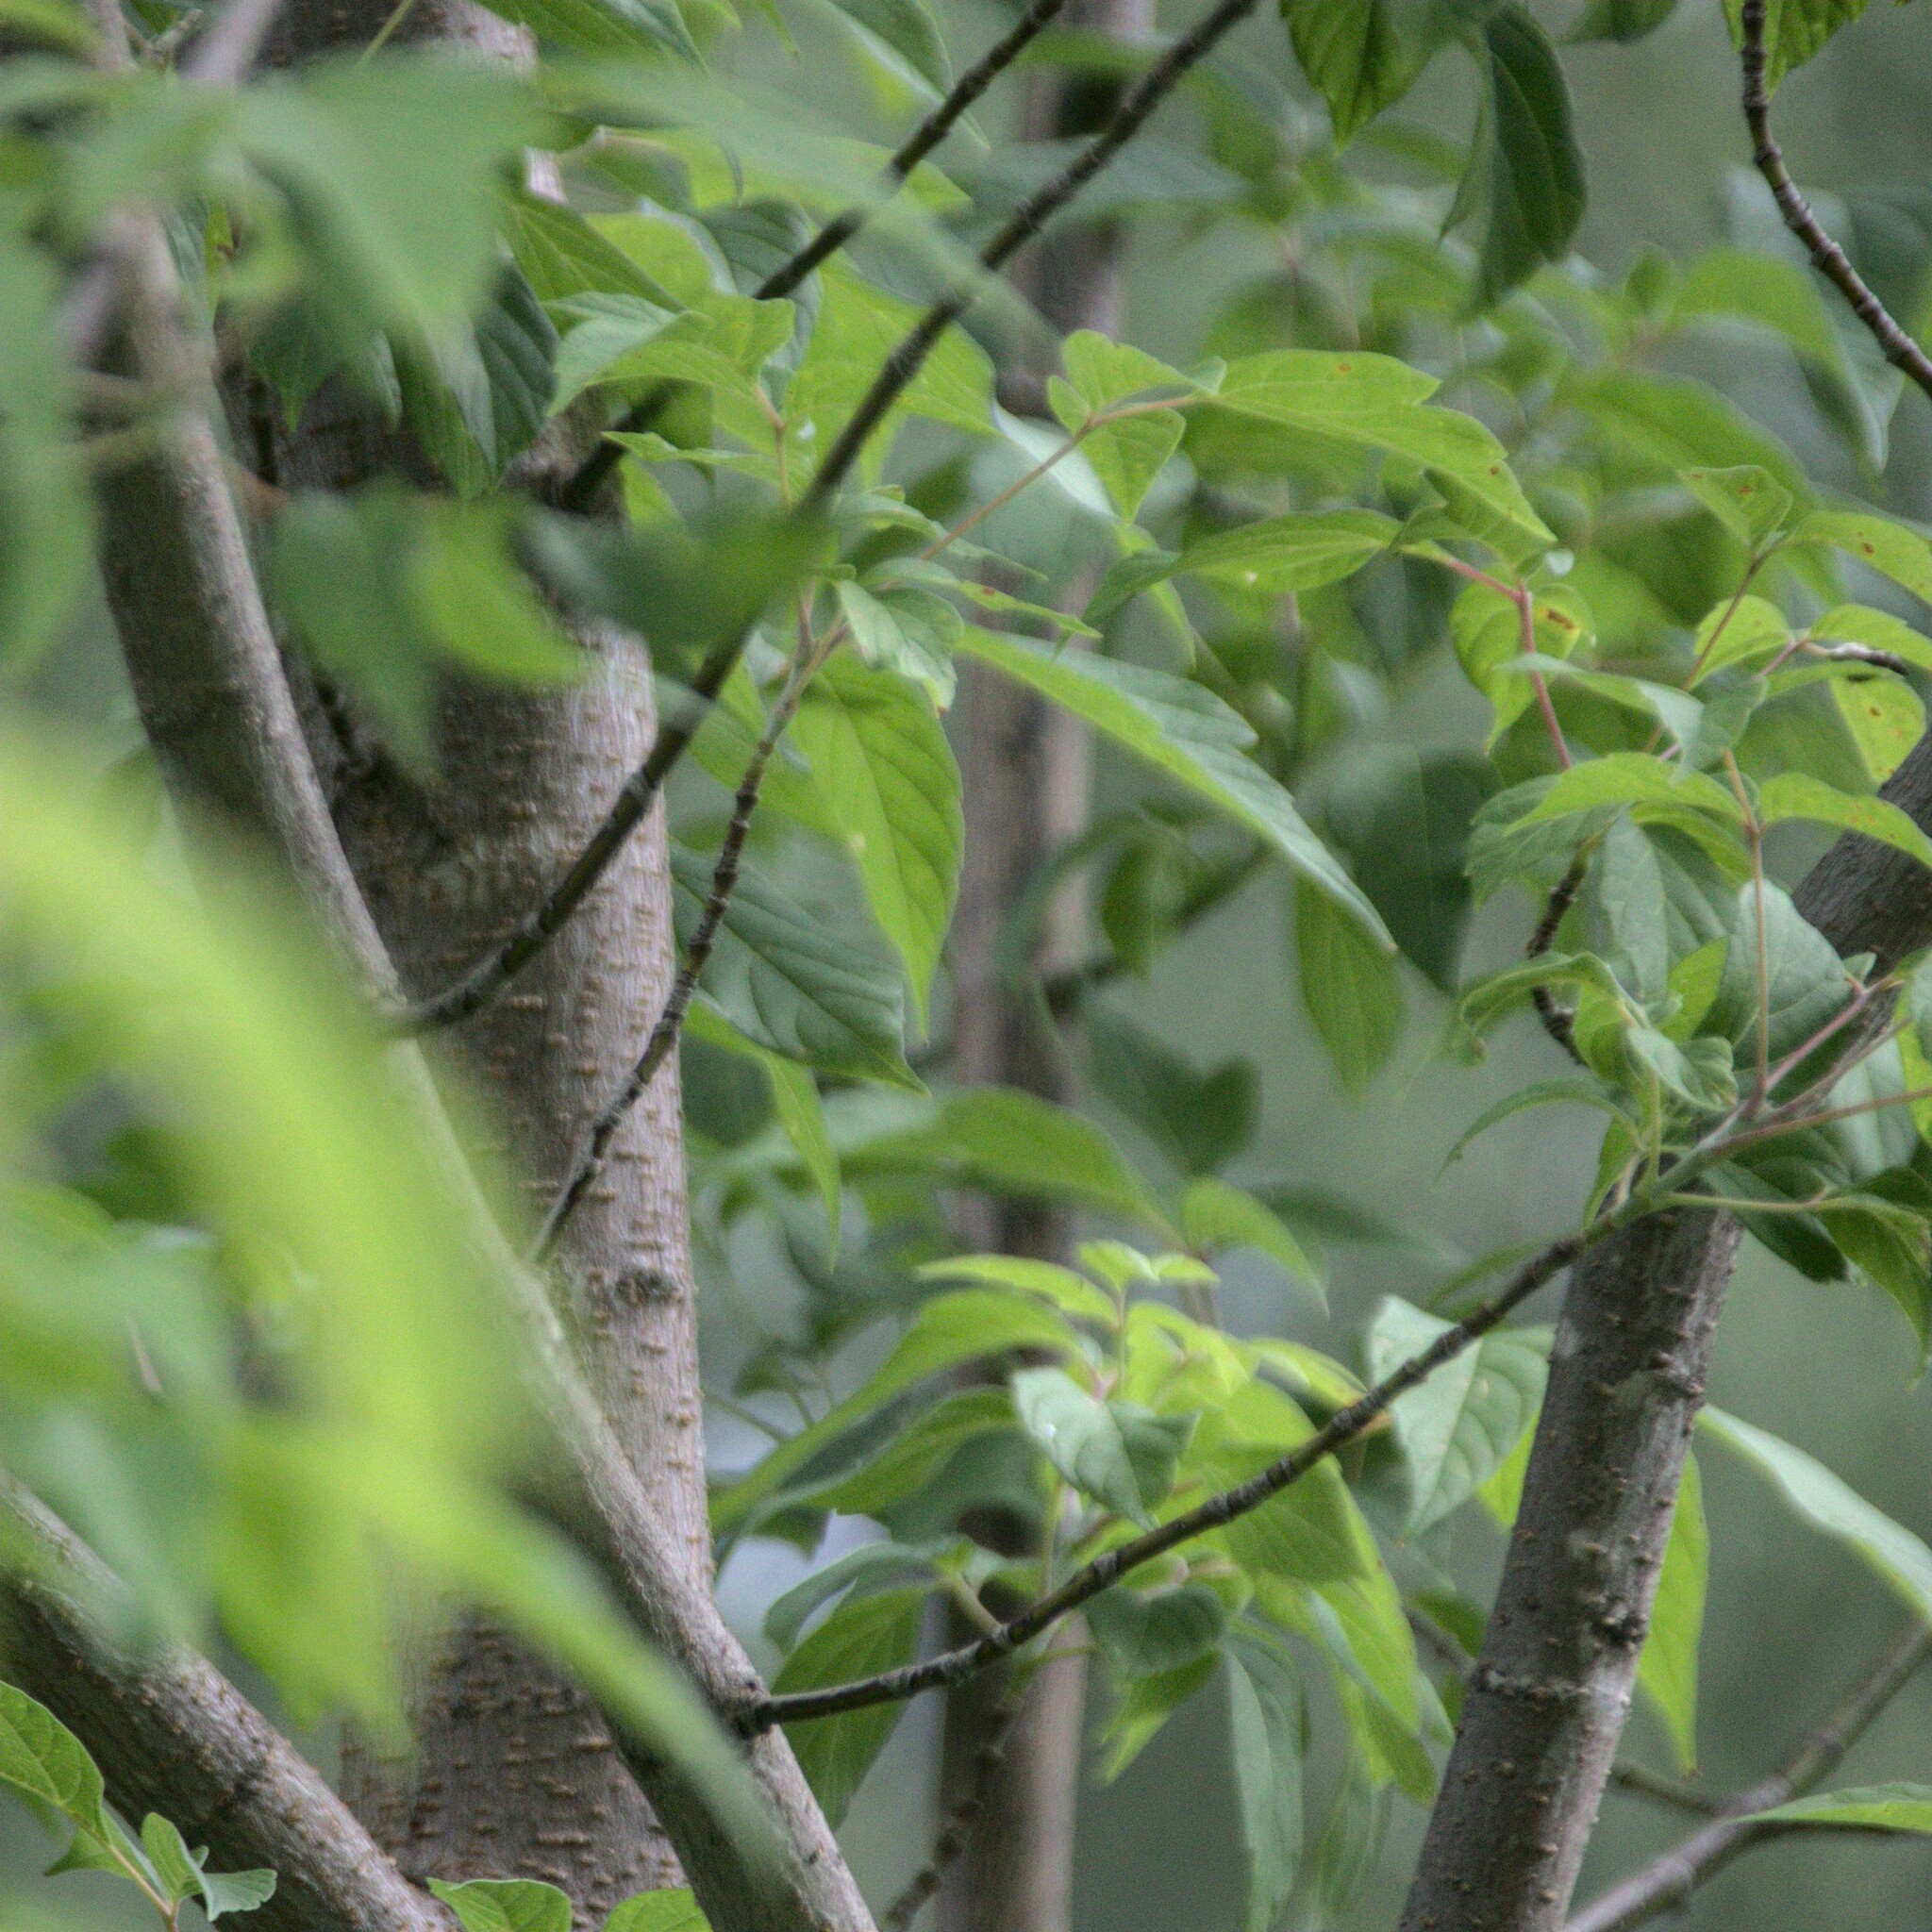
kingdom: Plantae
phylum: Tracheophyta
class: Magnoliopsida
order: Sapindales
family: Sapindaceae
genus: Acer
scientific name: Acer negundo
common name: Ashleaf maple
